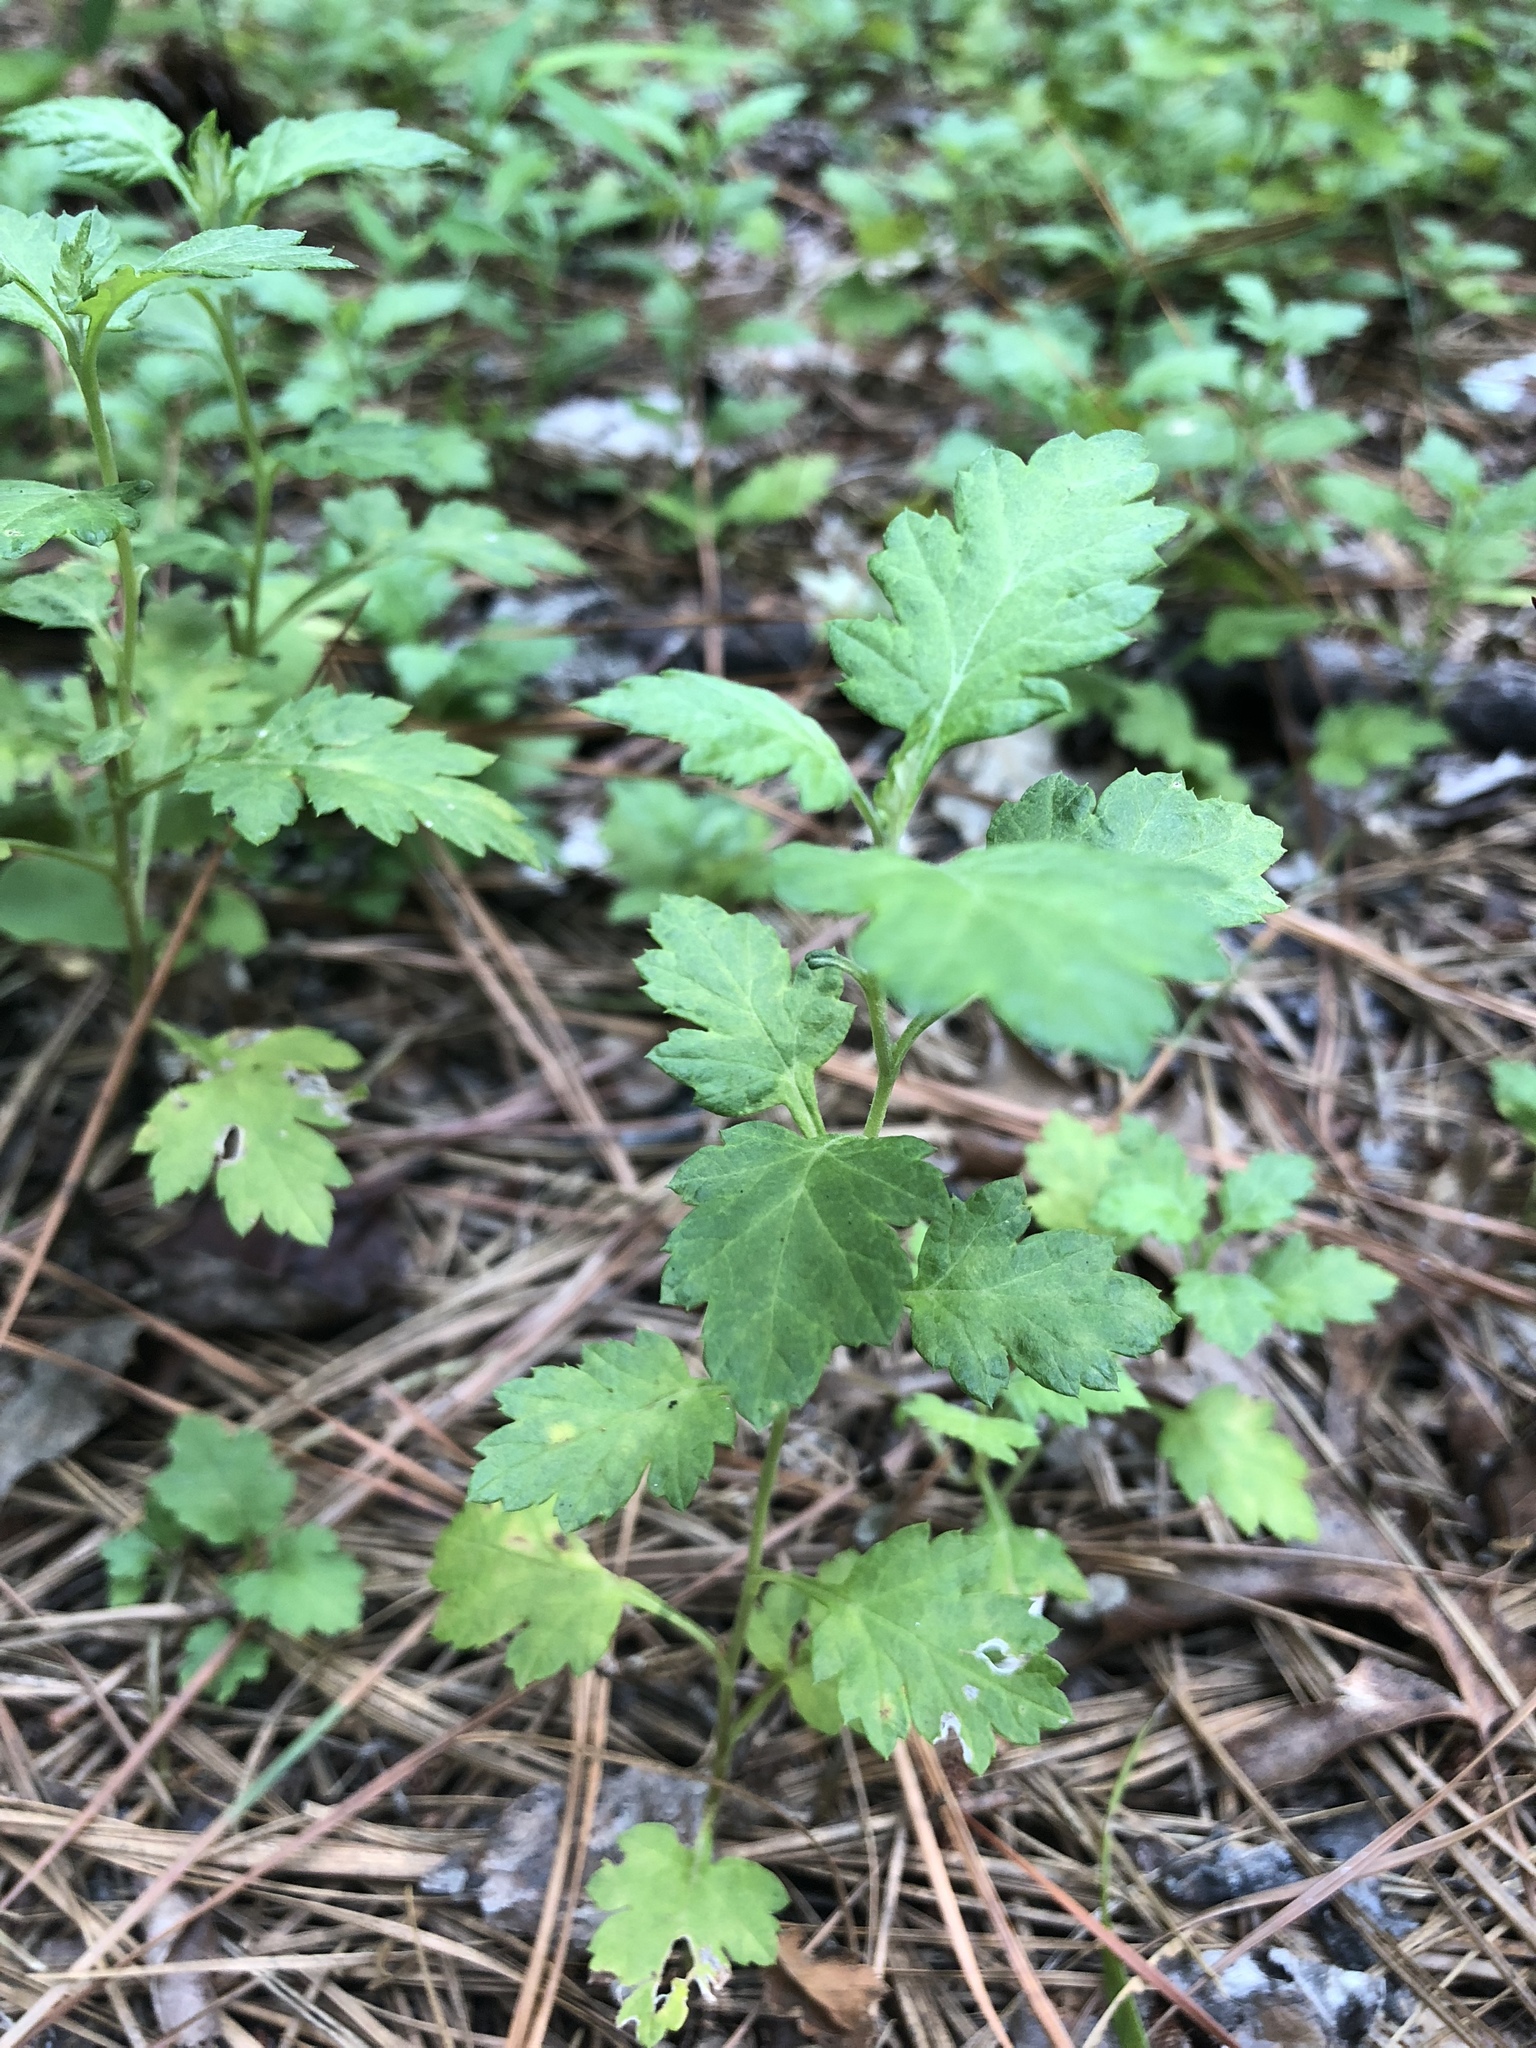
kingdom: Plantae
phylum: Tracheophyta
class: Magnoliopsida
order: Asterales
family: Asteraceae
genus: Artemisia
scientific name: Artemisia vulgaris
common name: Mugwort
